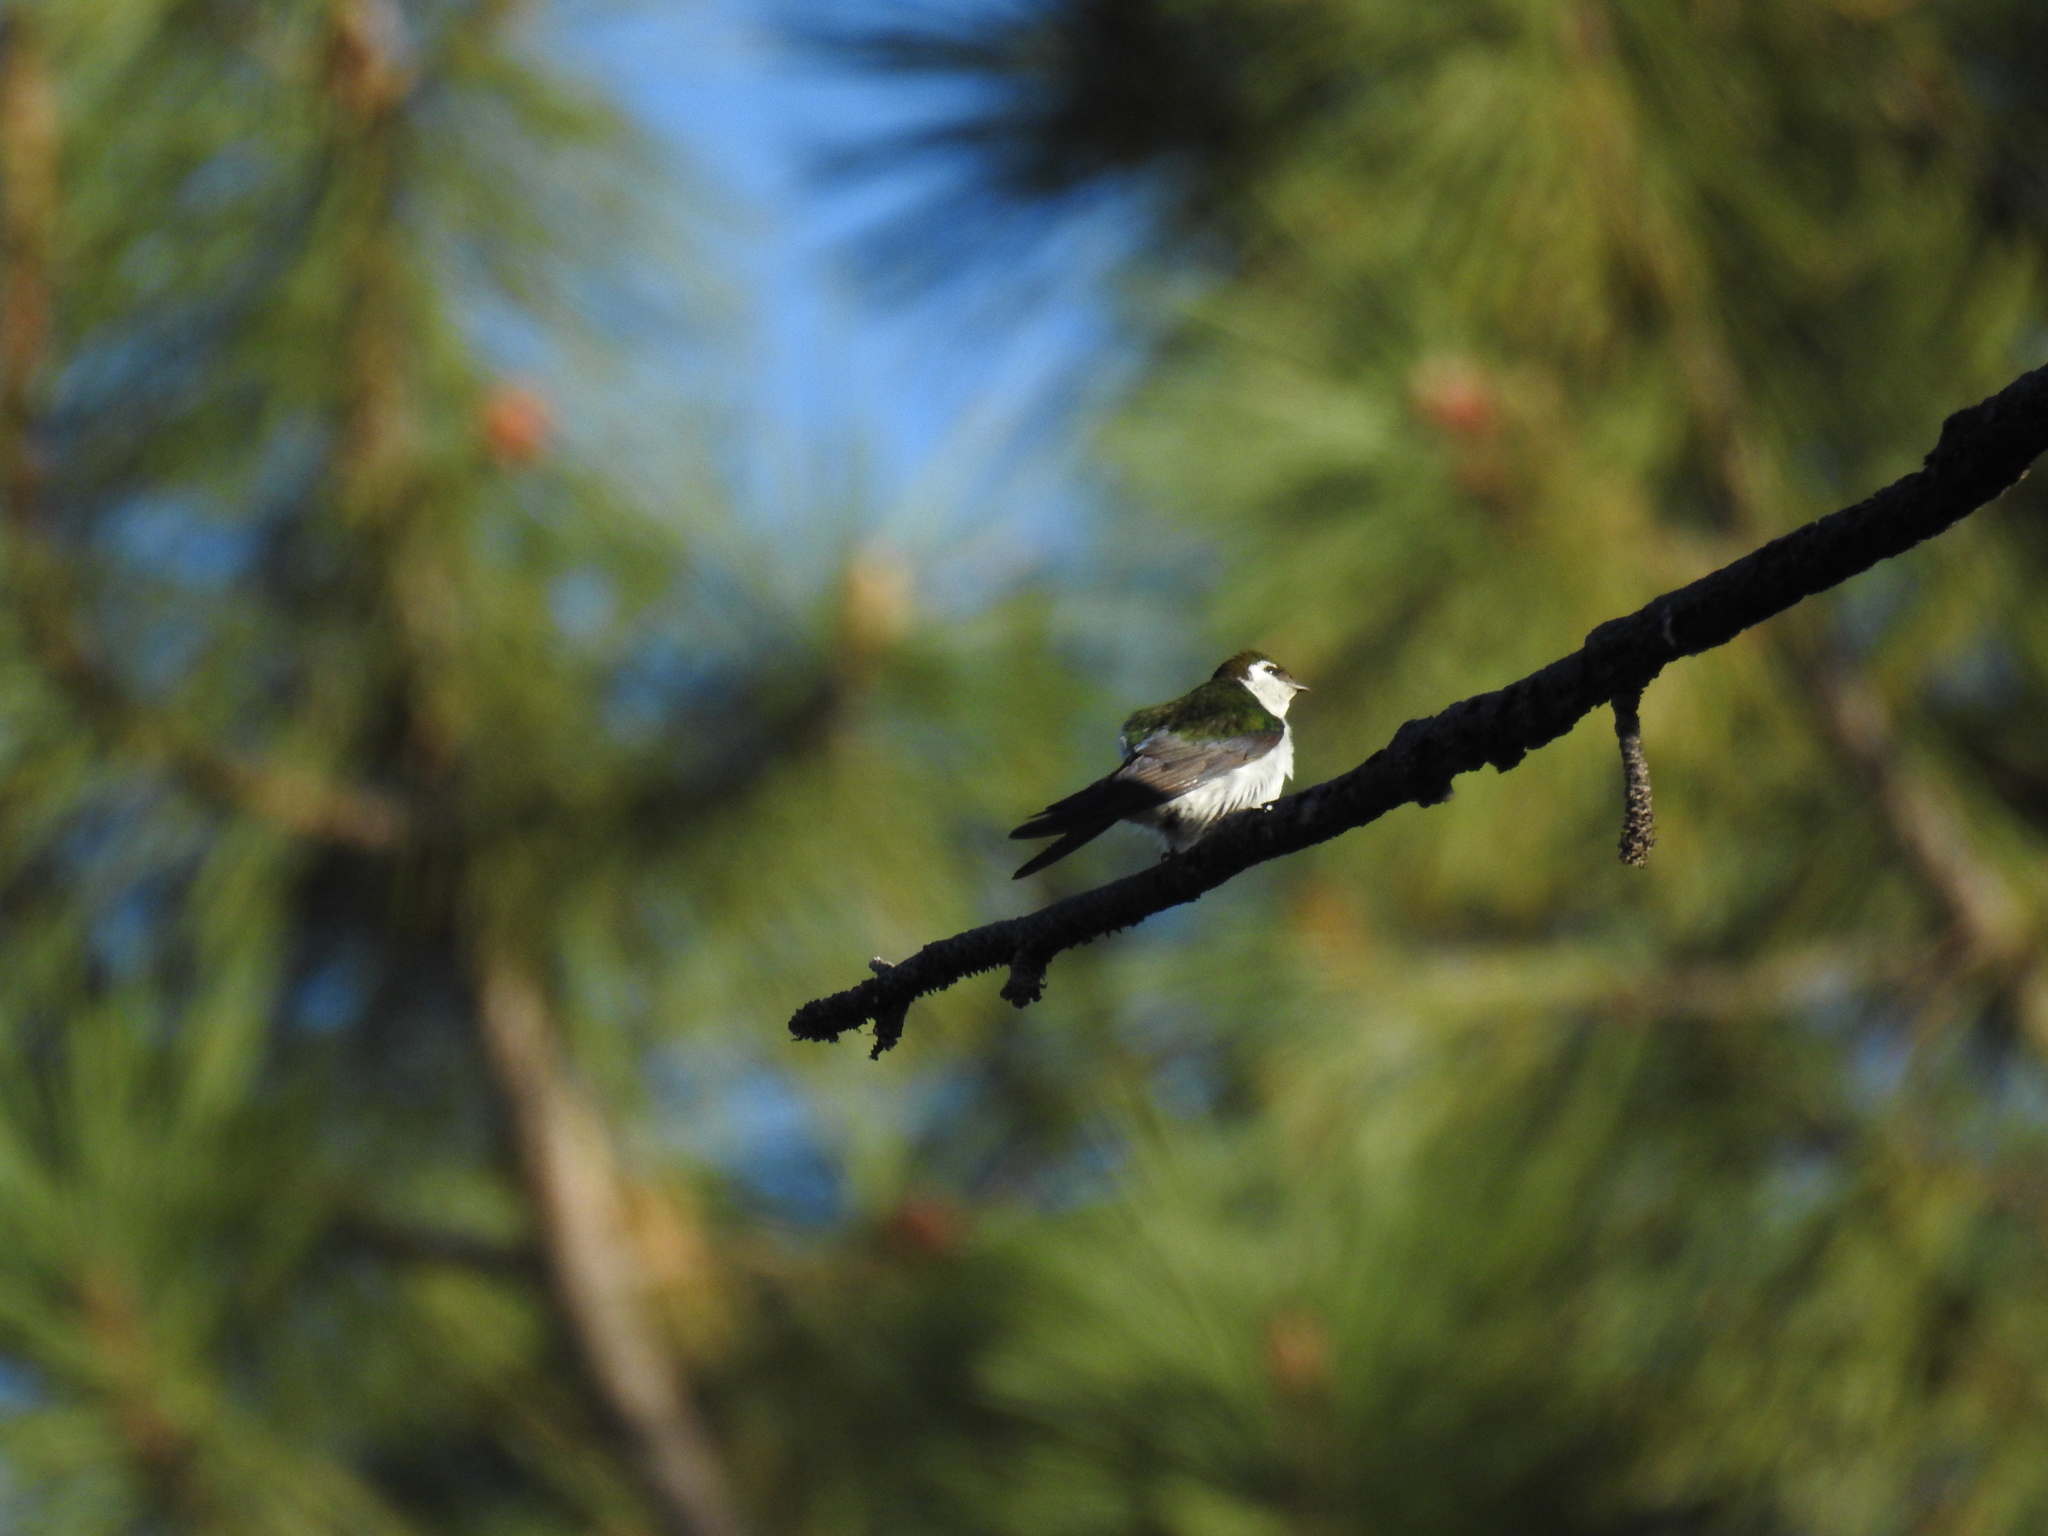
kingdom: Animalia
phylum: Chordata
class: Aves
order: Passeriformes
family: Hirundinidae
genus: Tachycineta
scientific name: Tachycineta thalassina
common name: Violet-green swallow
